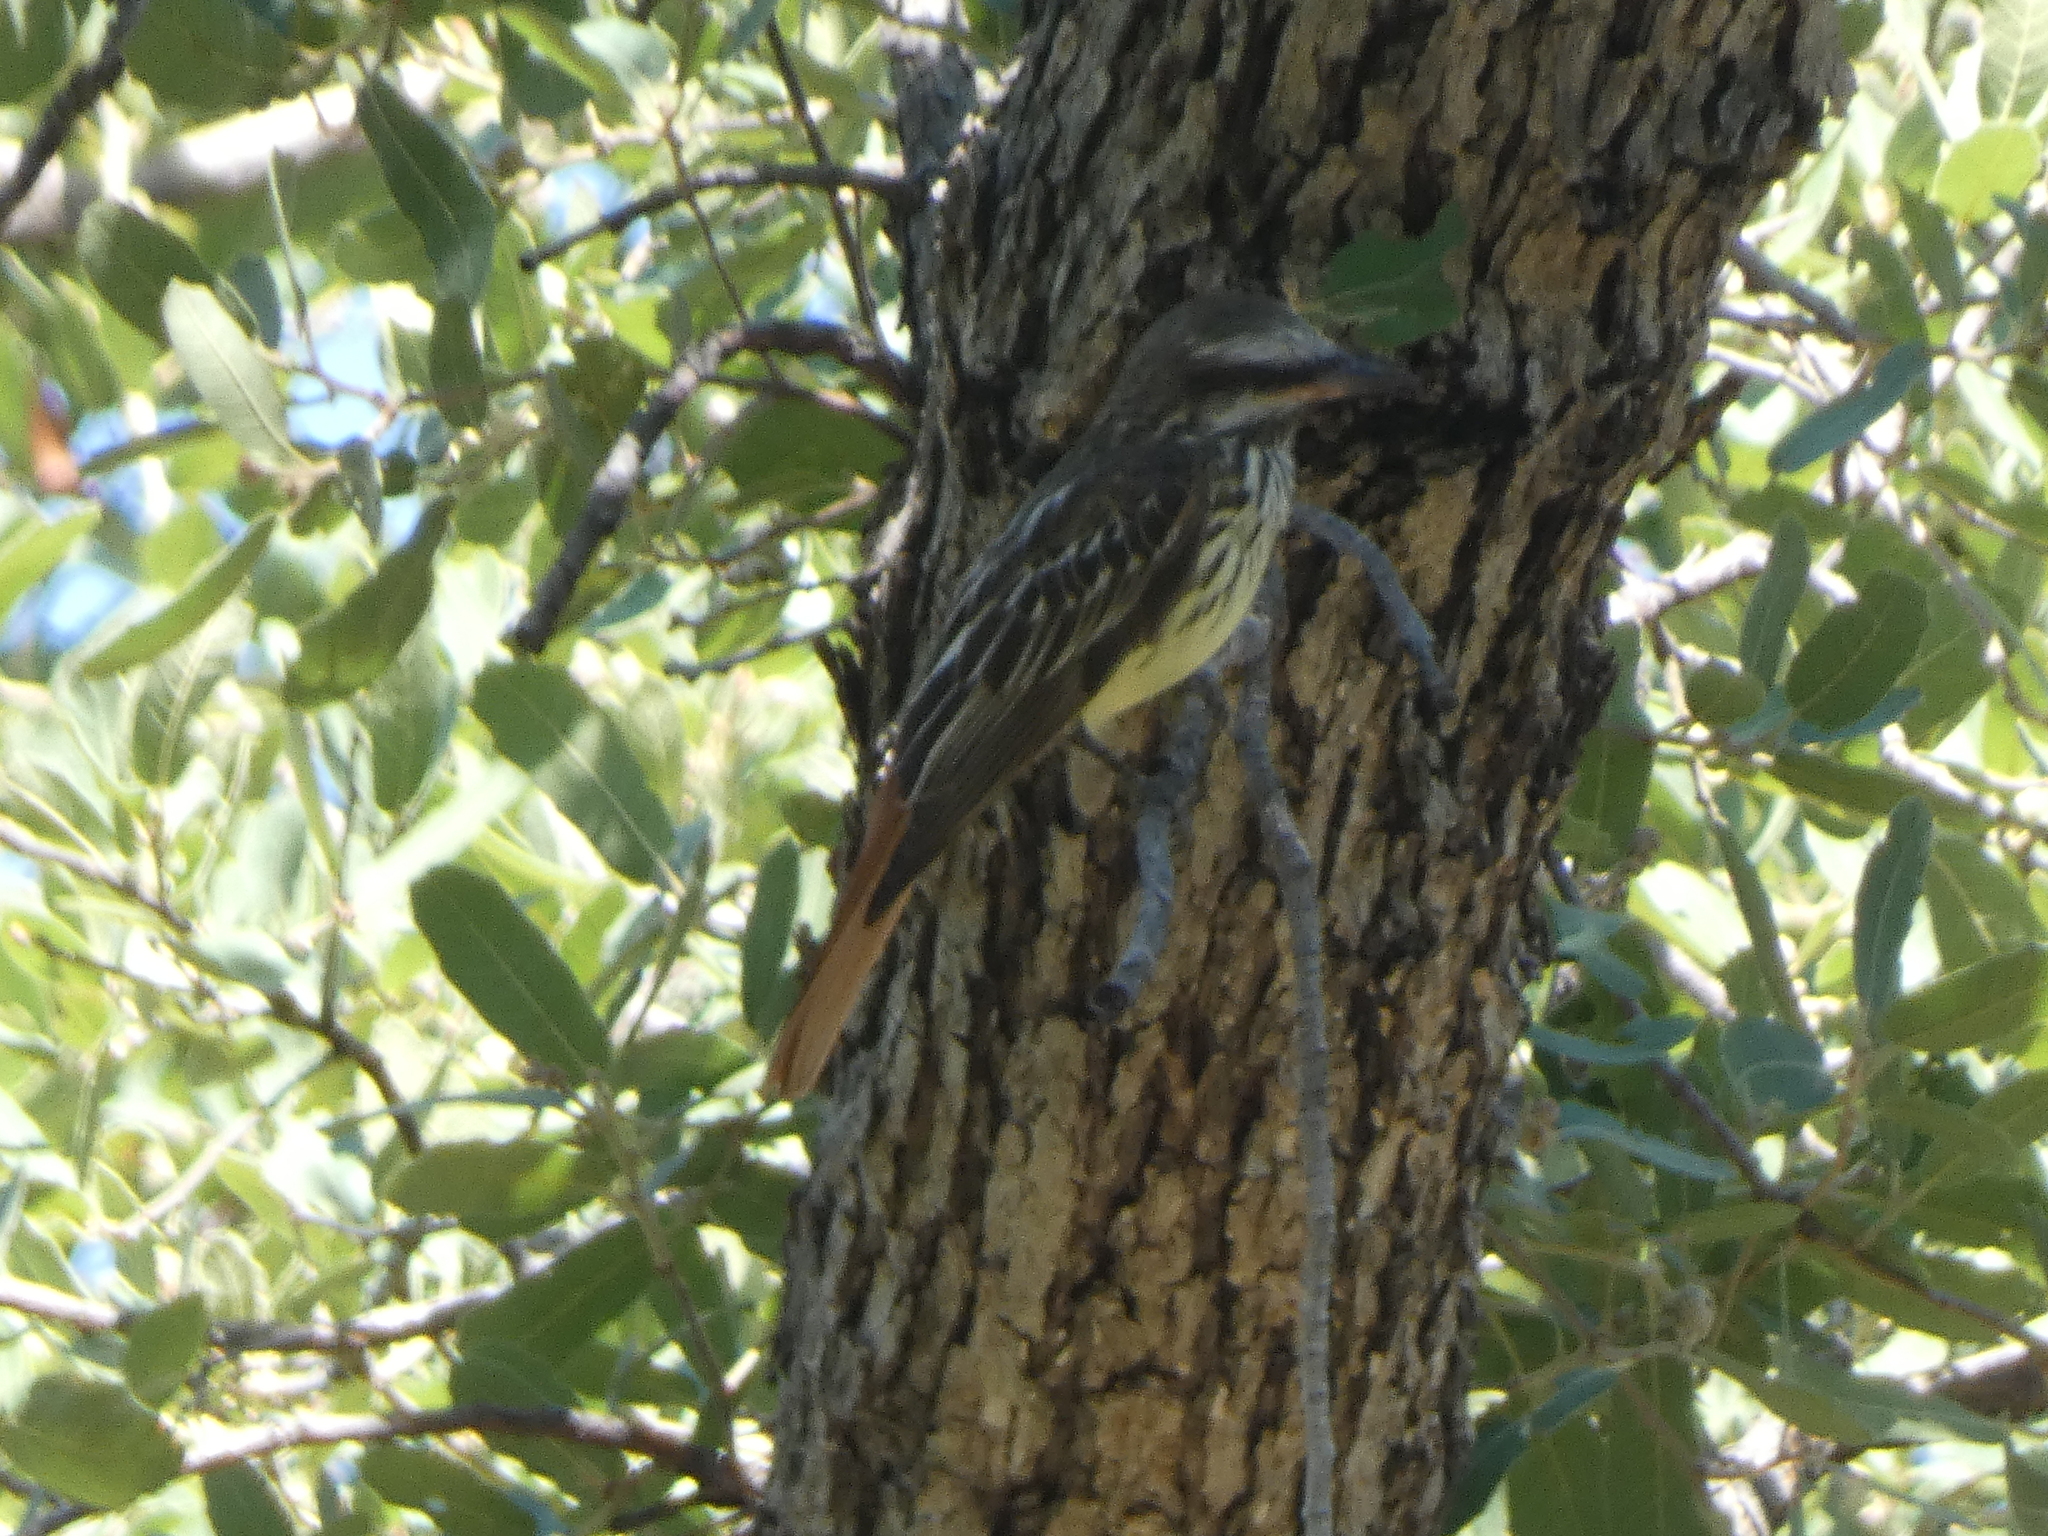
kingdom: Animalia
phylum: Chordata
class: Aves
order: Passeriformes
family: Tyrannidae
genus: Myiodynastes
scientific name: Myiodynastes luteiventris
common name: Sulphur-bellied flycatcher
